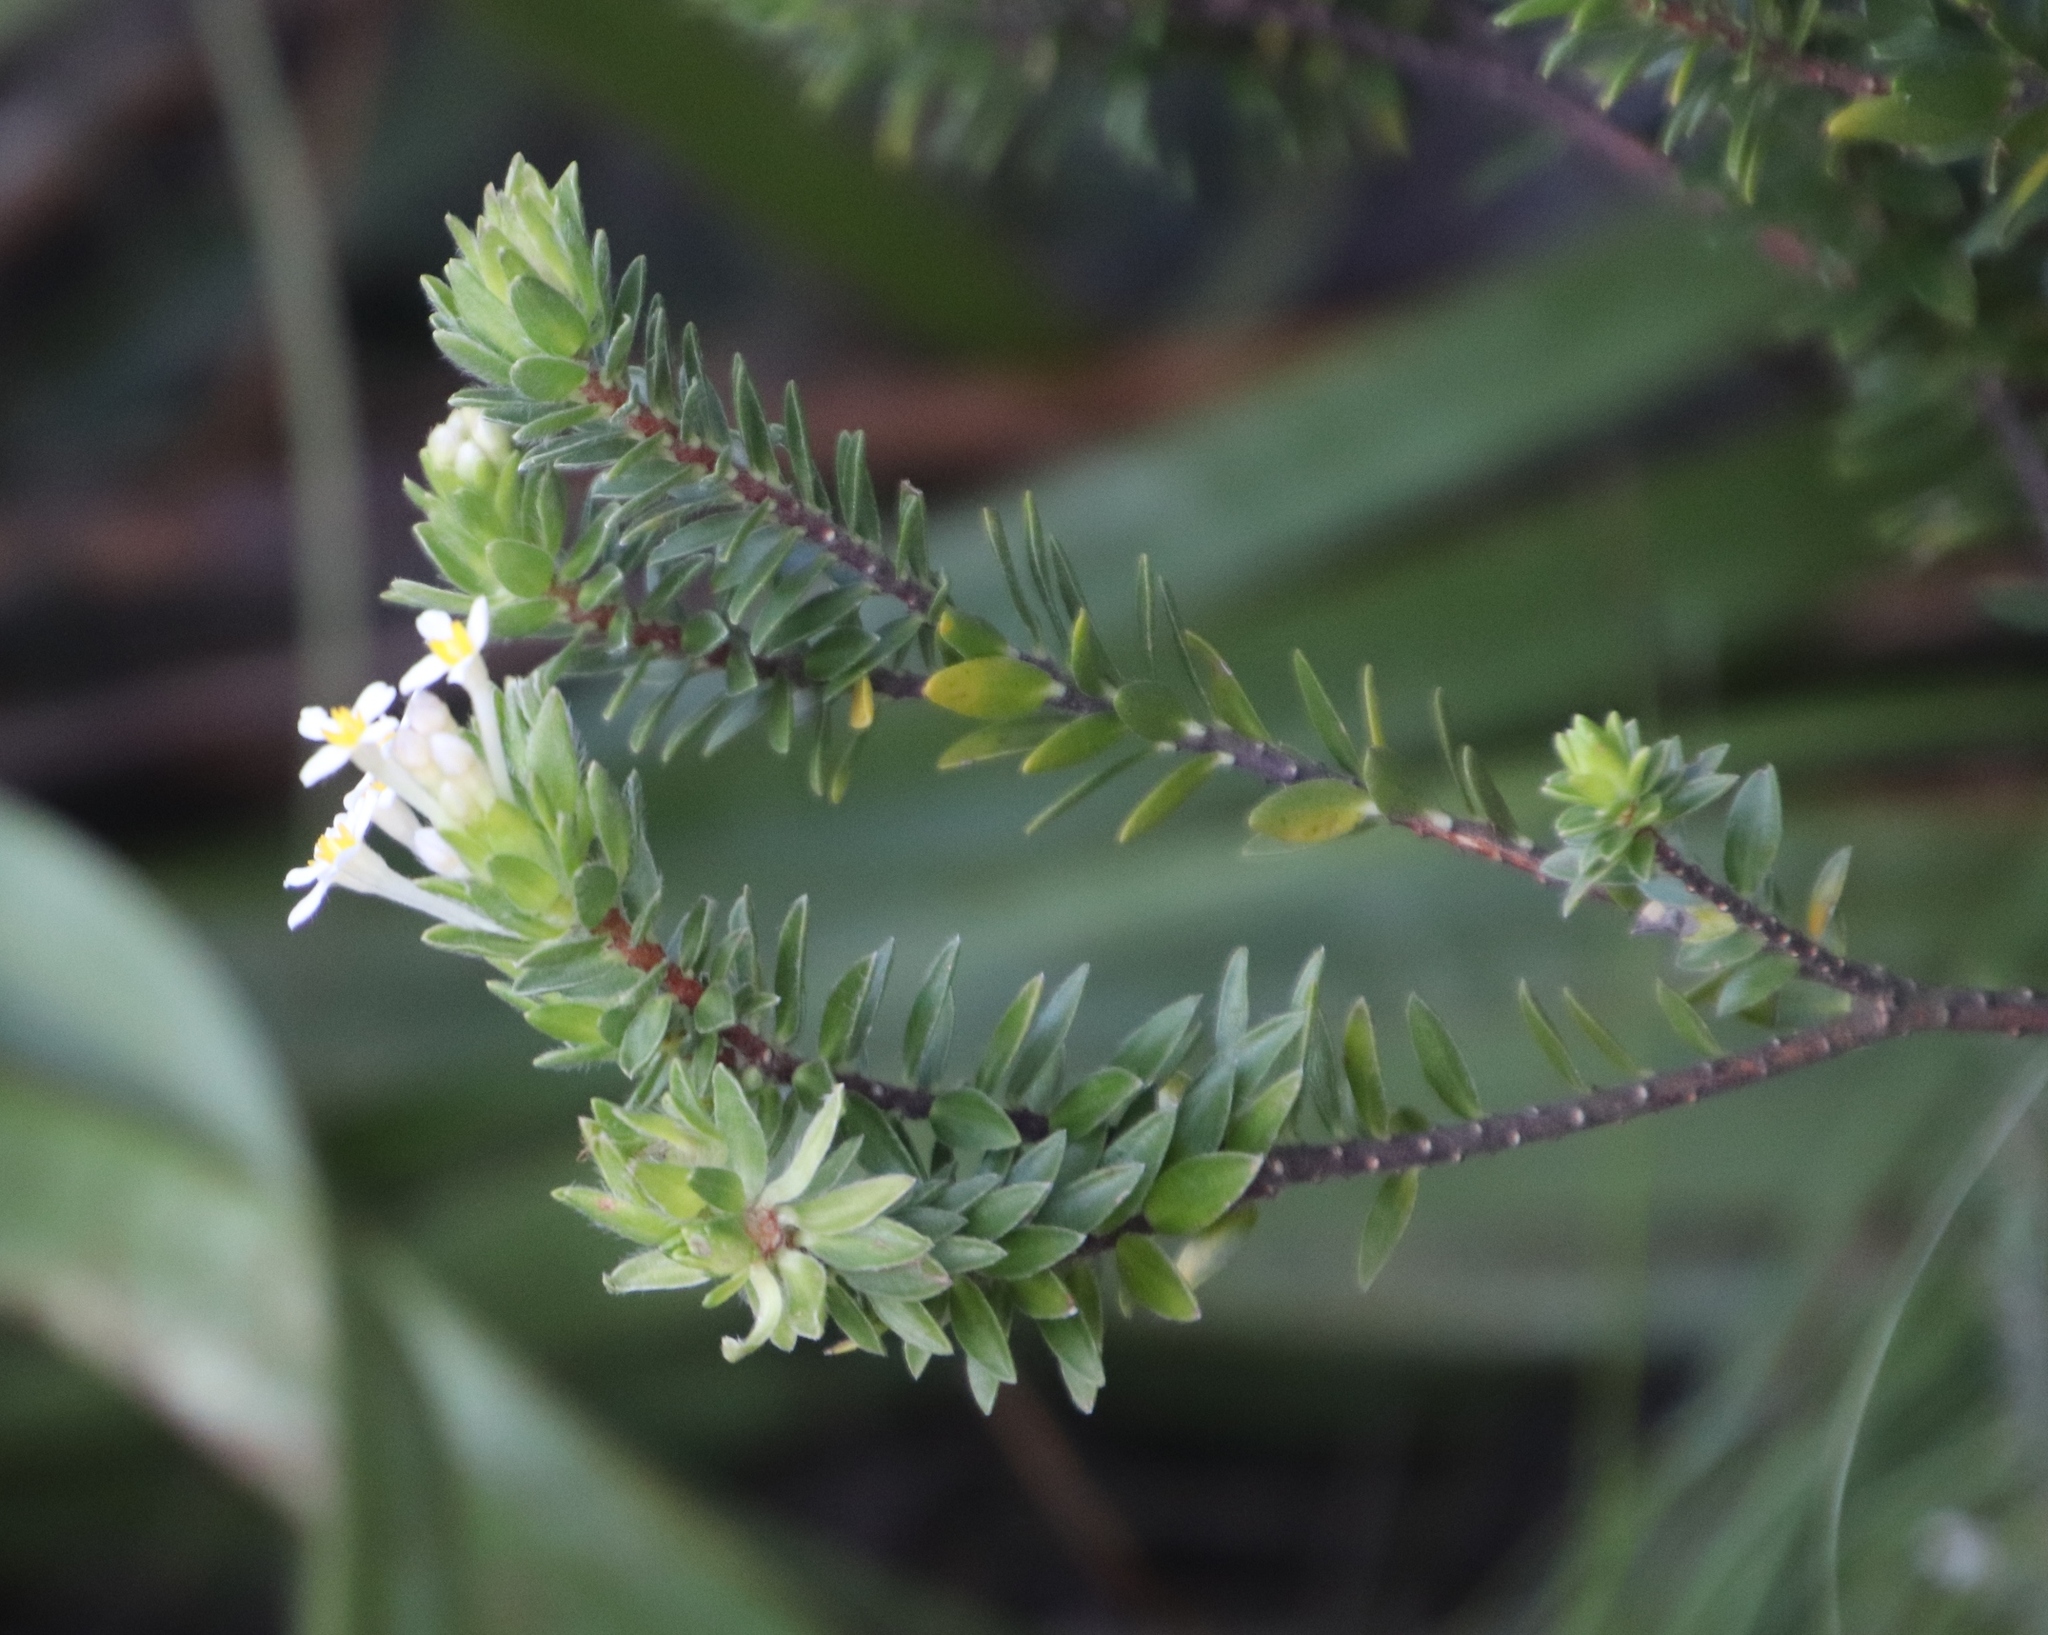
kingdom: Plantae
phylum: Tracheophyta
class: Magnoliopsida
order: Malvales
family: Thymelaeaceae
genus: Gnidia
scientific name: Gnidia tomentosa
